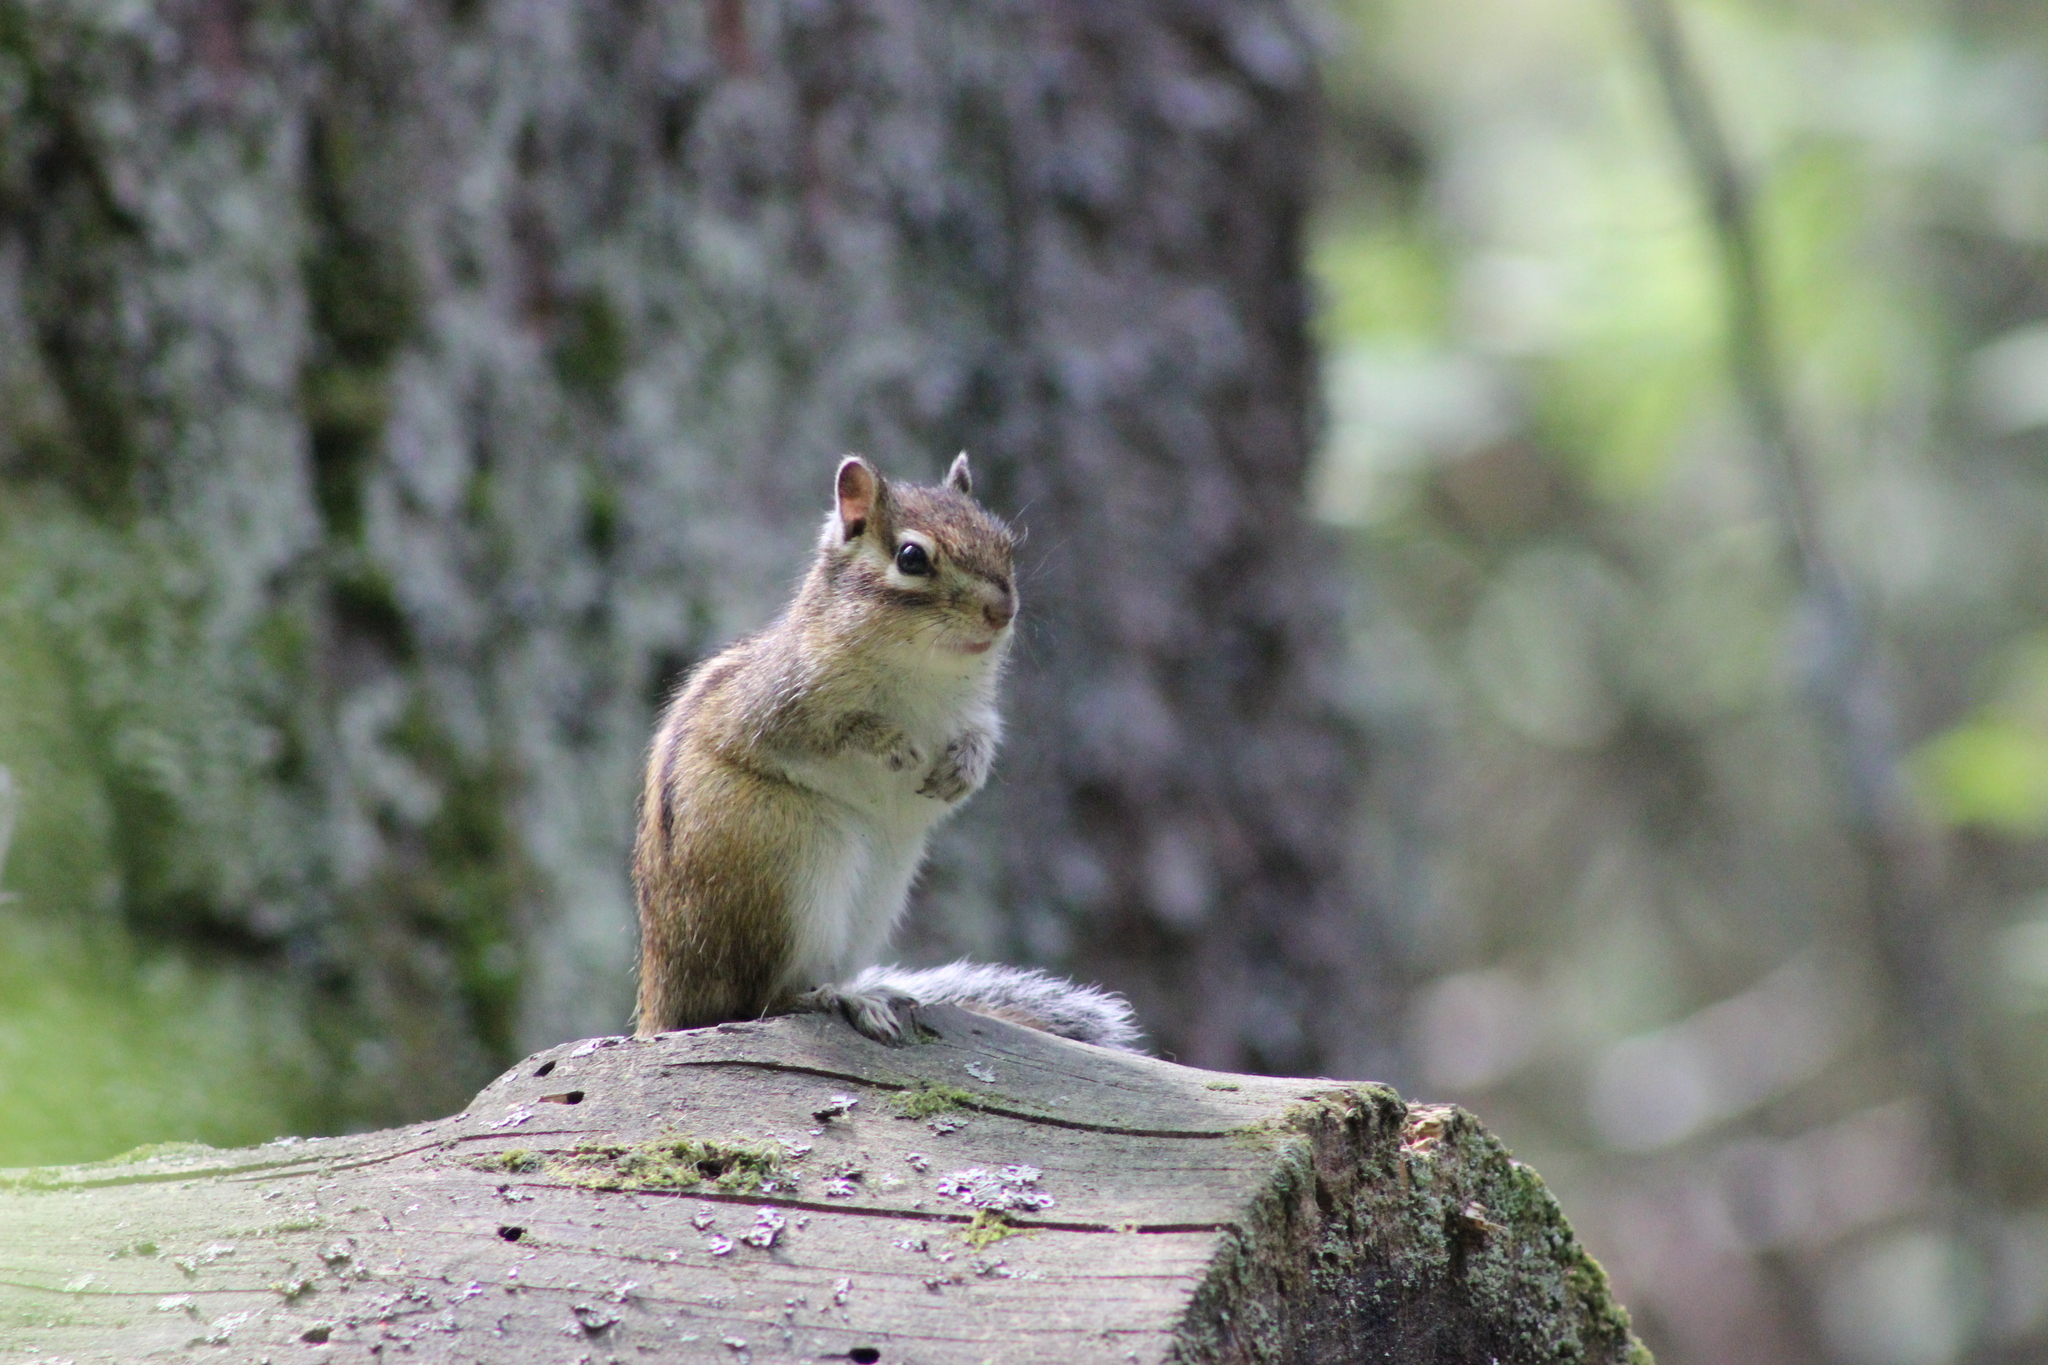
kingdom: Animalia
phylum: Chordata
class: Mammalia
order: Rodentia
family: Sciuridae
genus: Tamias
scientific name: Tamias sibiricus
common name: Siberian chipmunk
